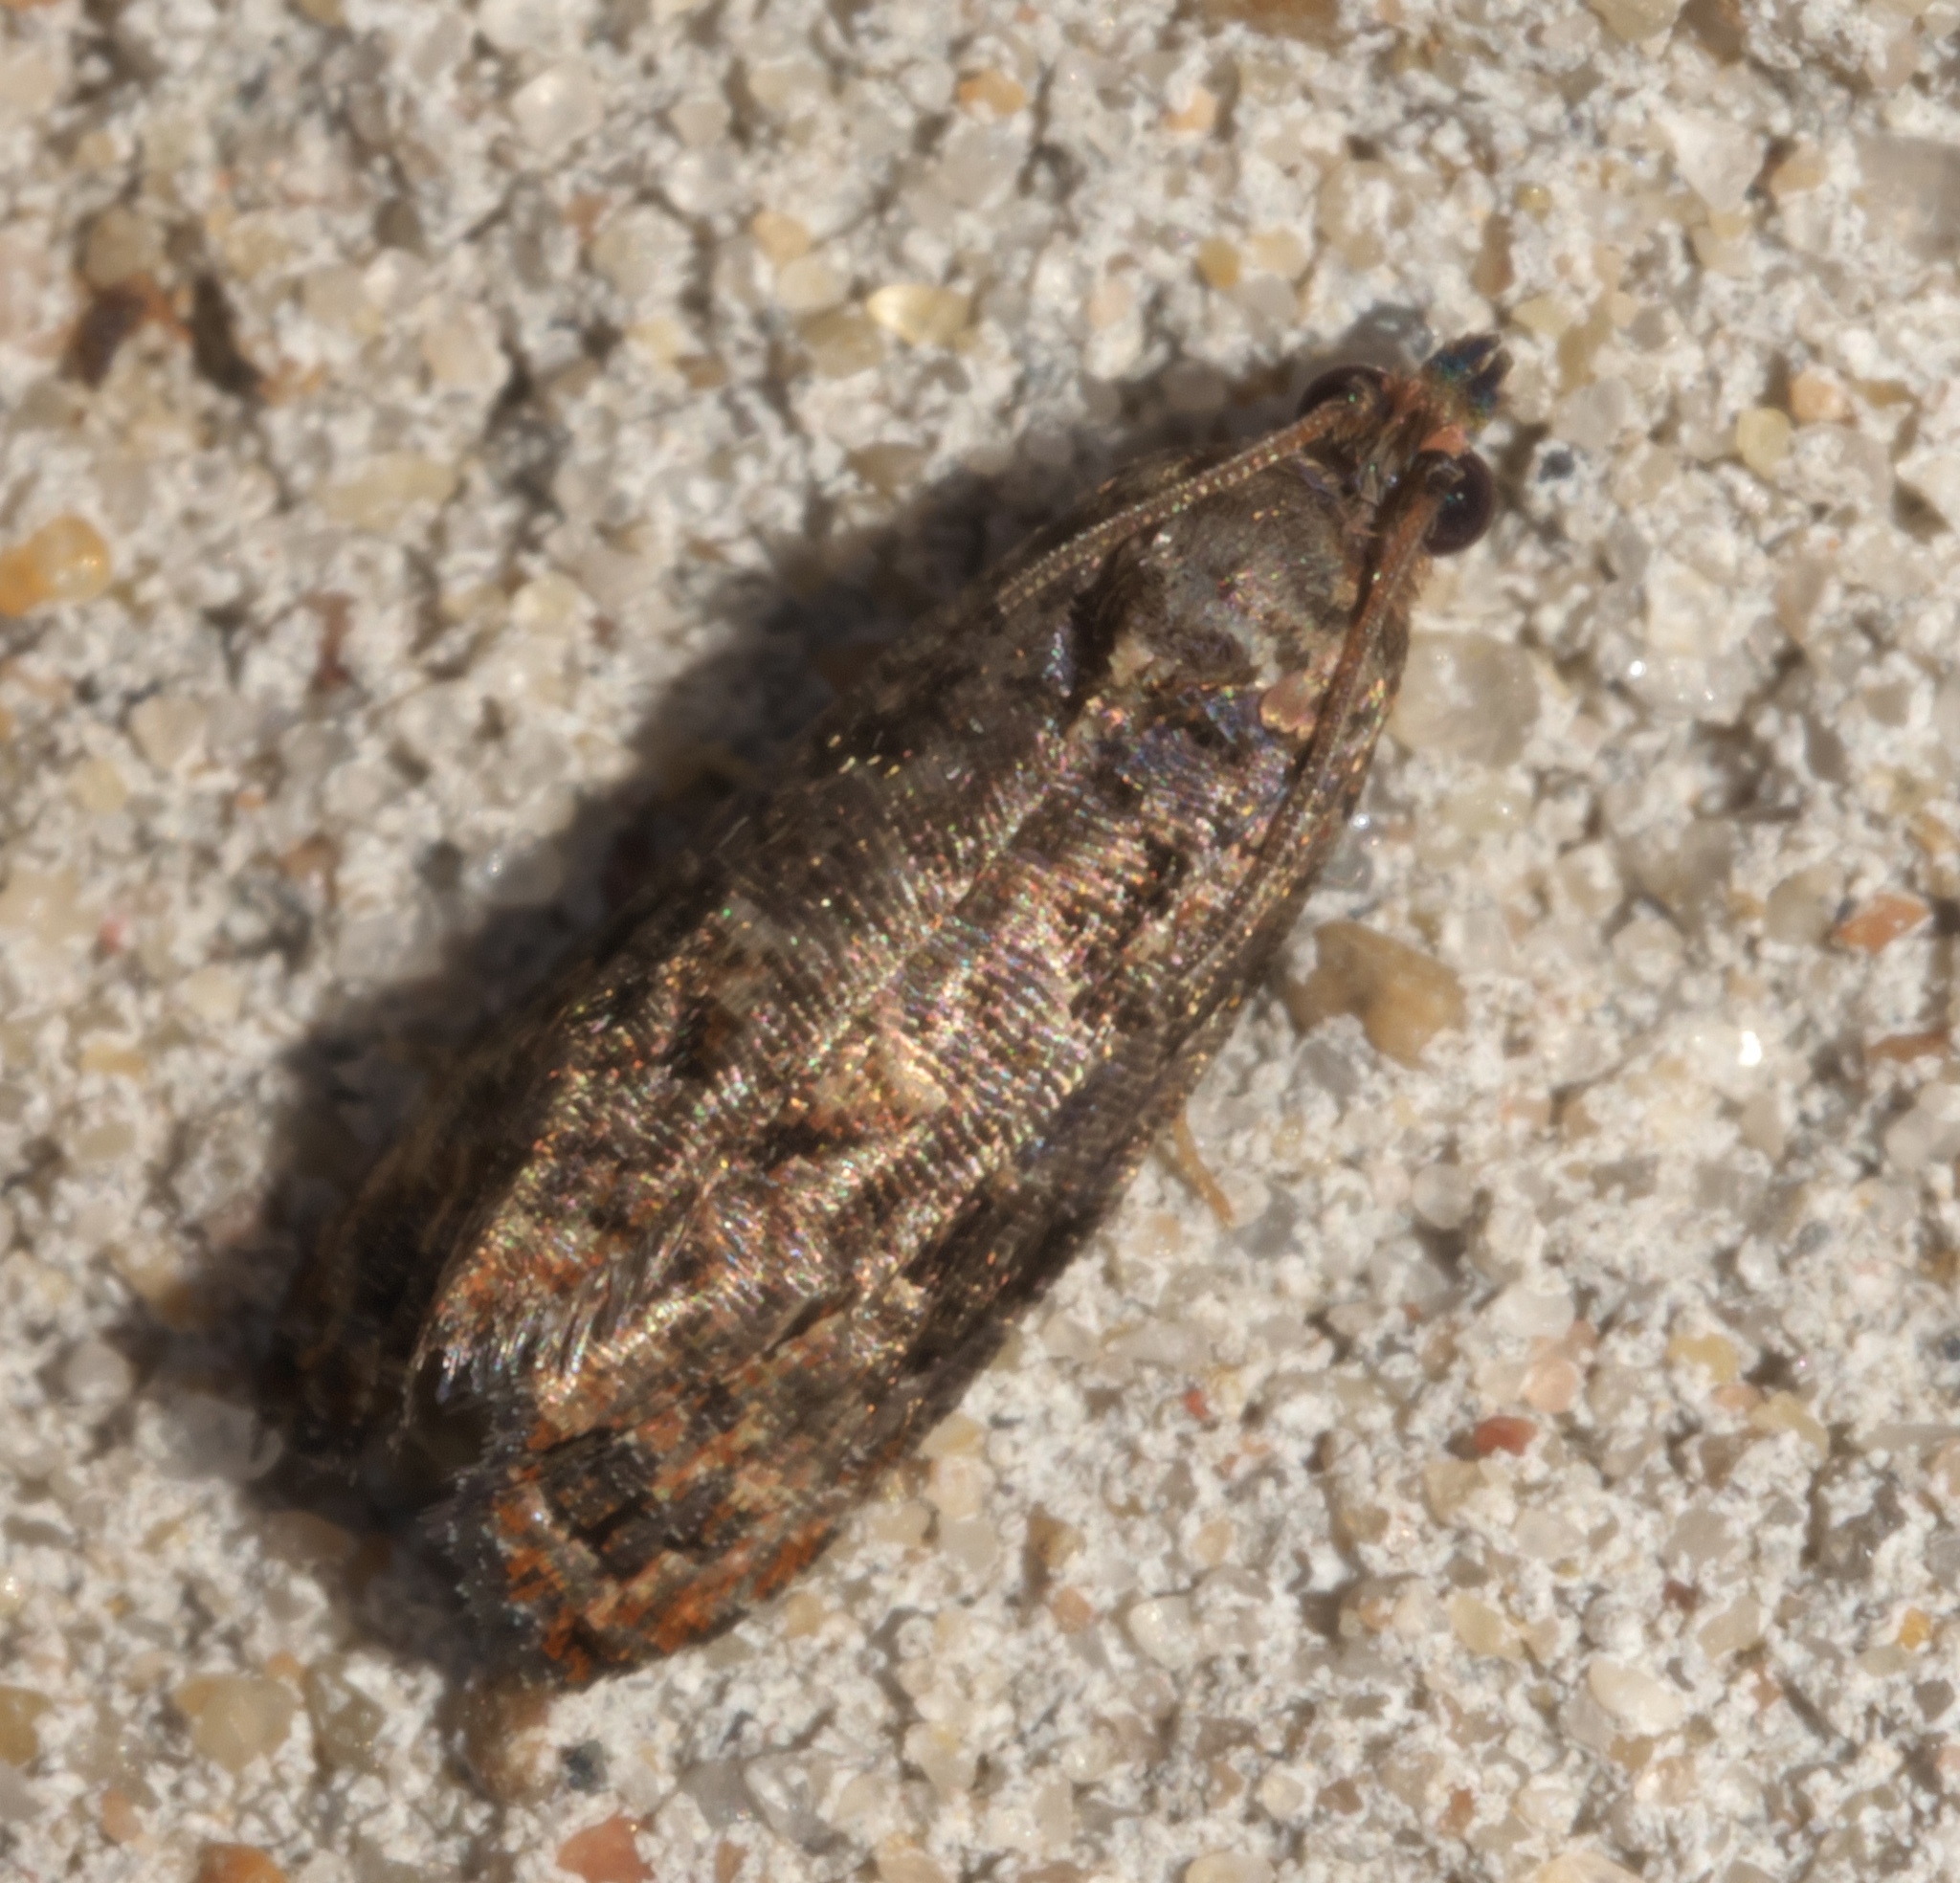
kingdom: Animalia
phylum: Arthropoda
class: Insecta
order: Lepidoptera
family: Tortricidae
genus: Endothenia
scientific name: Endothenia hebesana
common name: Verbena bud moth
